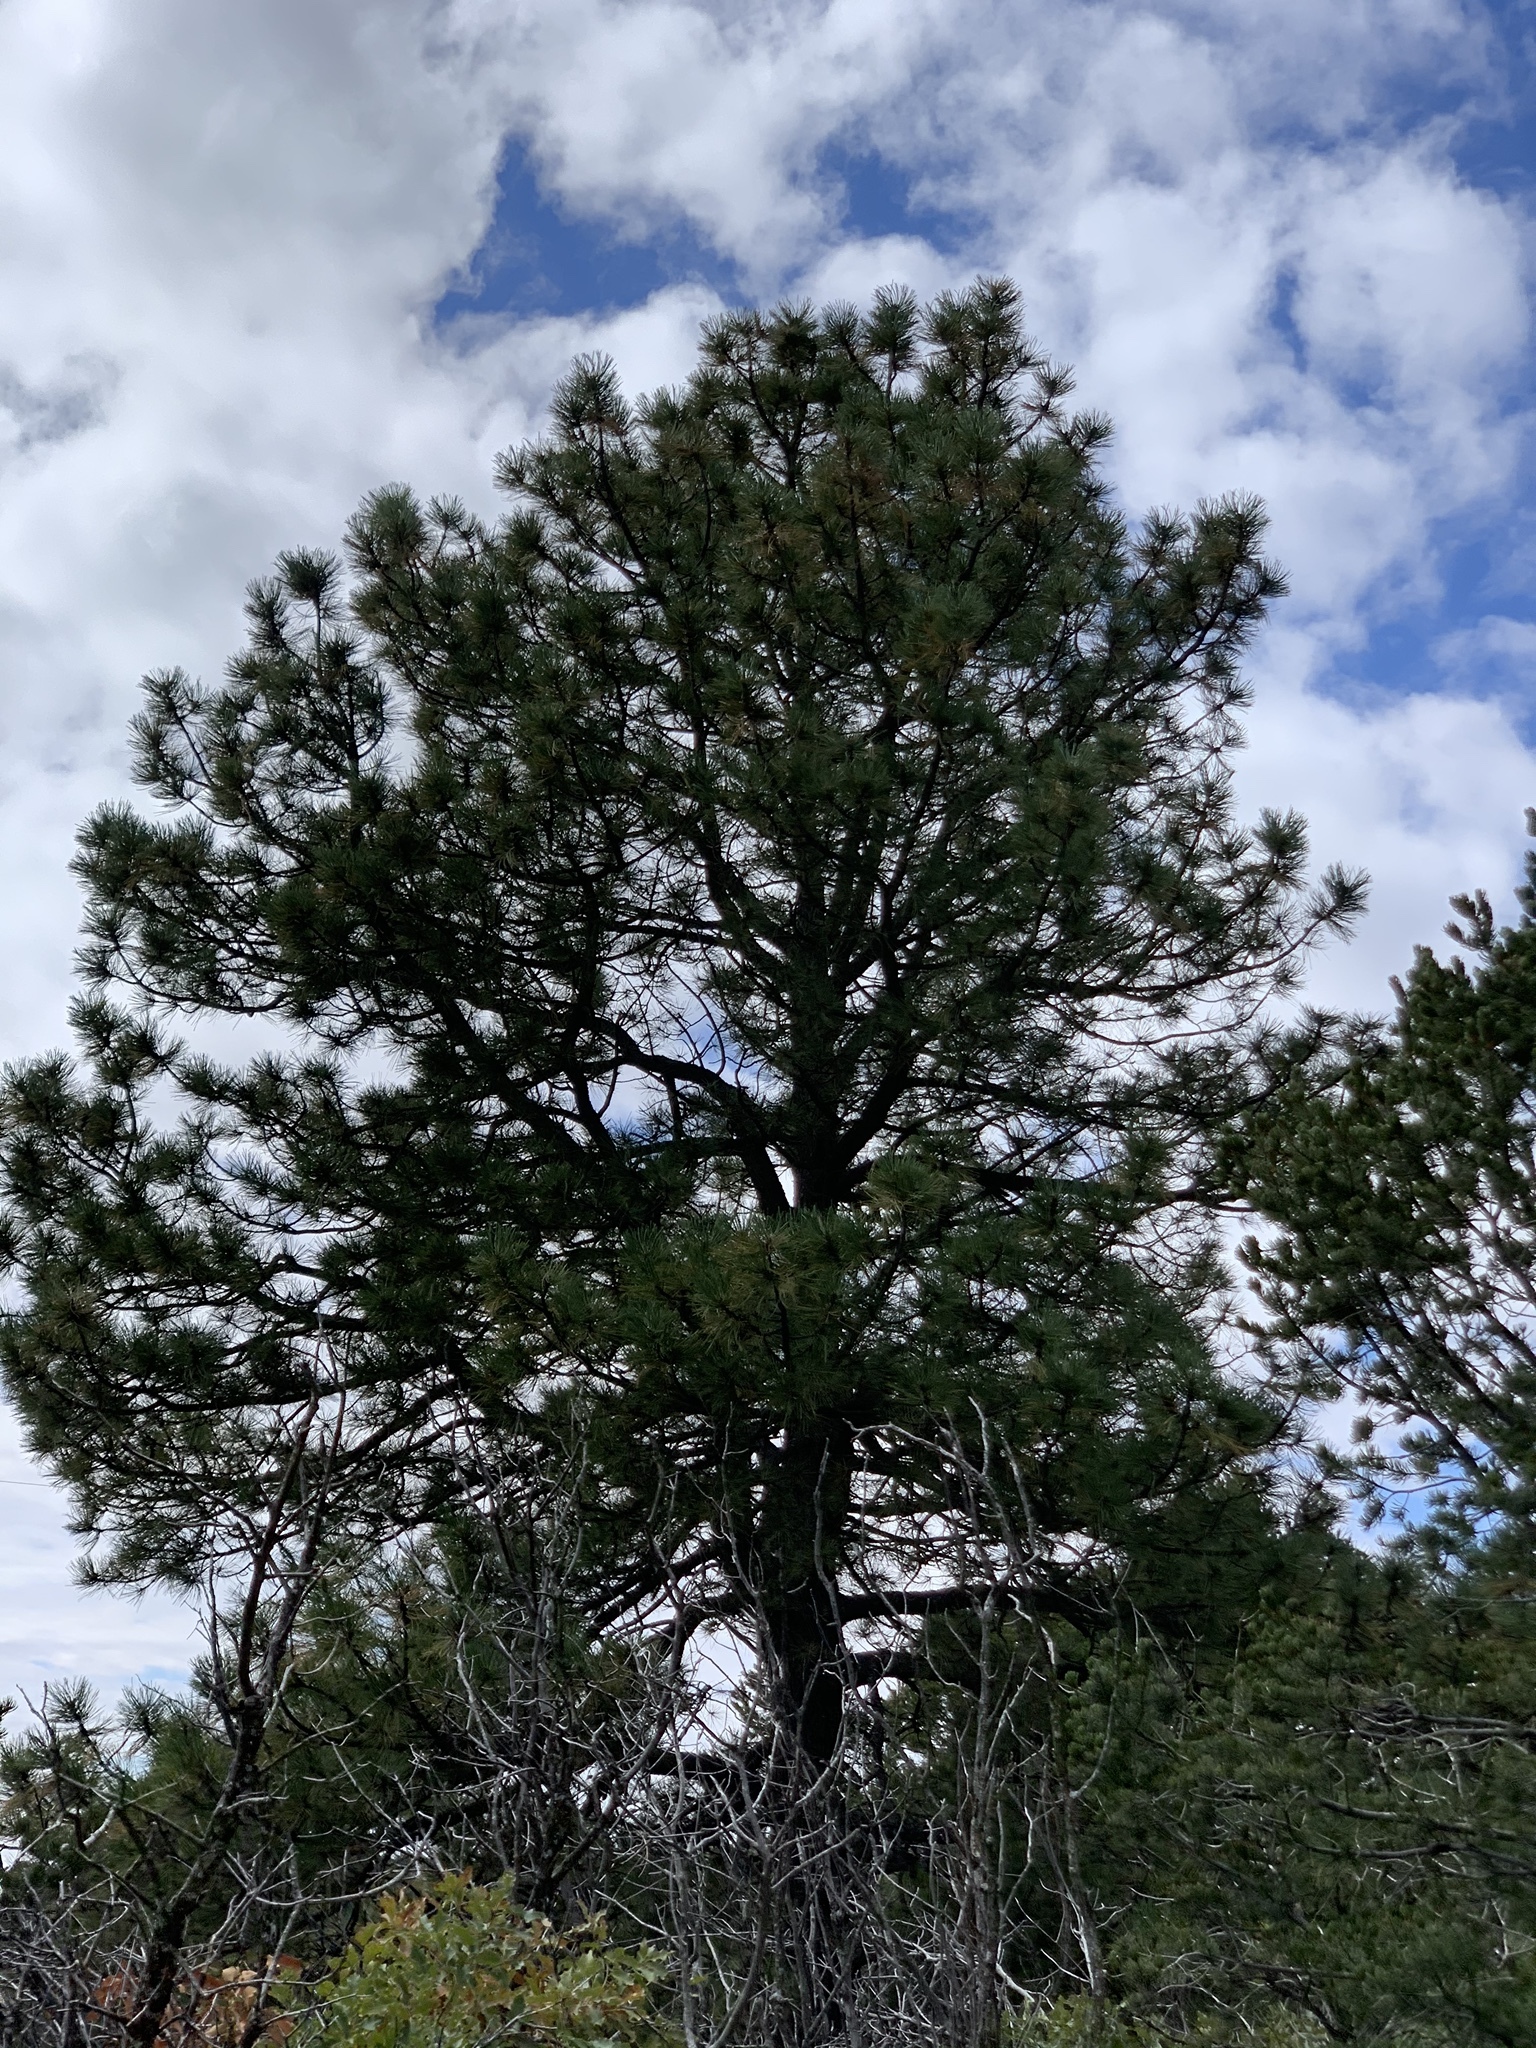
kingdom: Plantae
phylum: Tracheophyta
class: Pinopsida
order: Pinales
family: Pinaceae
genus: Pinus
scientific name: Pinus ponderosa
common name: Western yellow-pine
